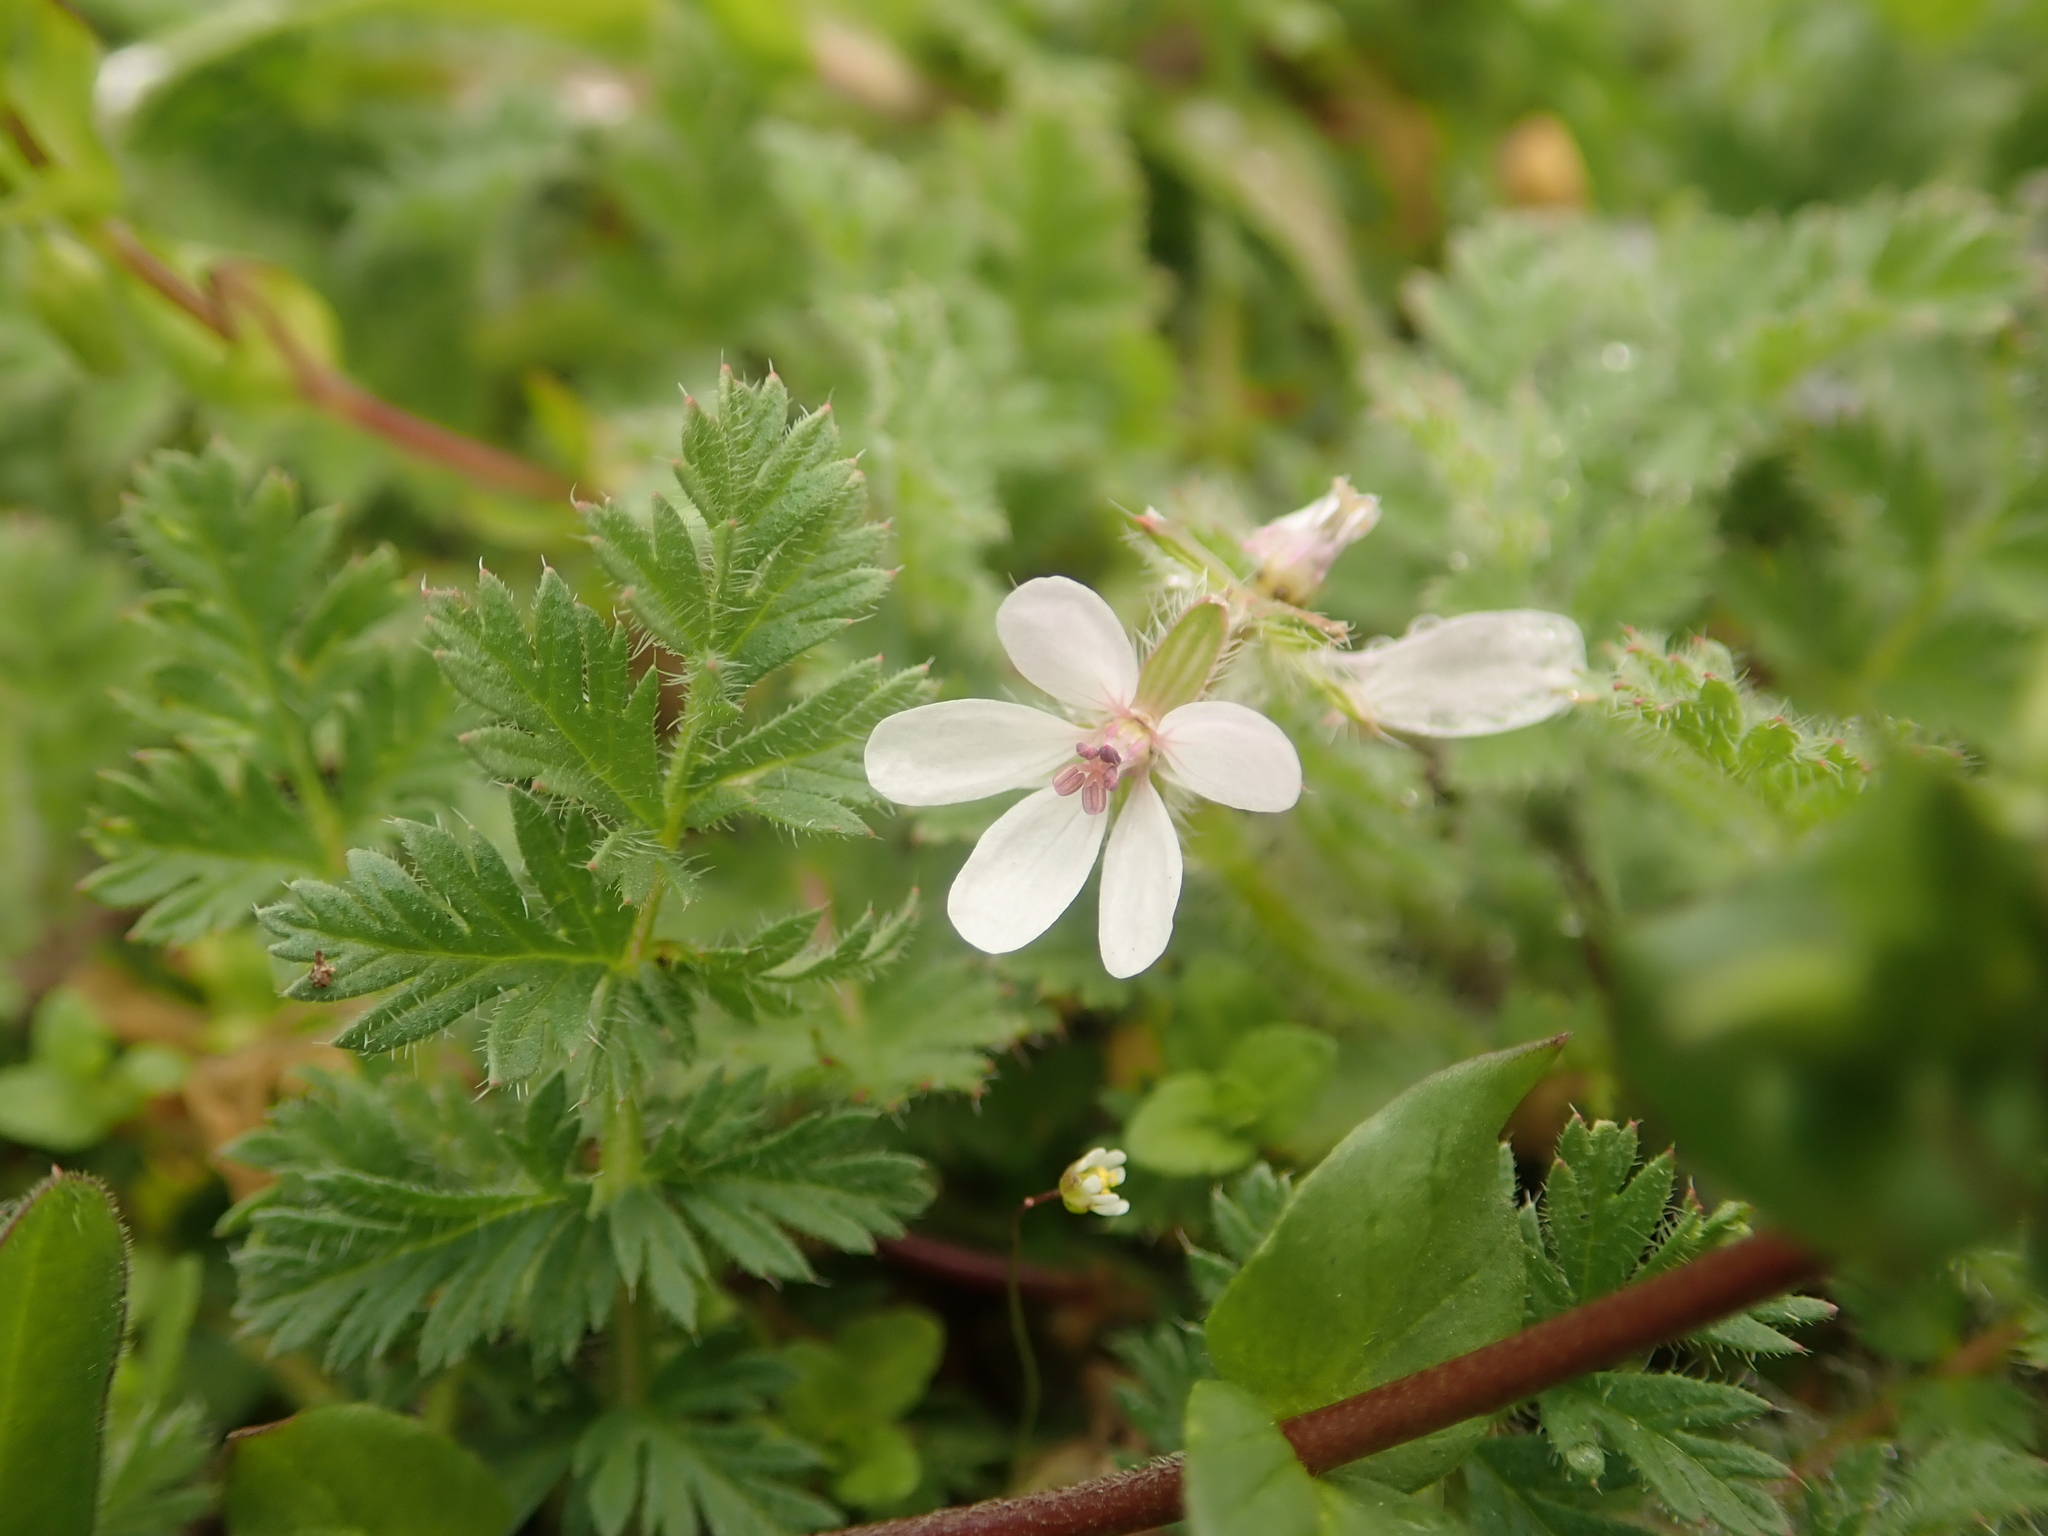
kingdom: Plantae
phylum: Tracheophyta
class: Magnoliopsida
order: Geraniales
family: Geraniaceae
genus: Erodium
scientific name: Erodium cicutarium
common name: Common stork's-bill
